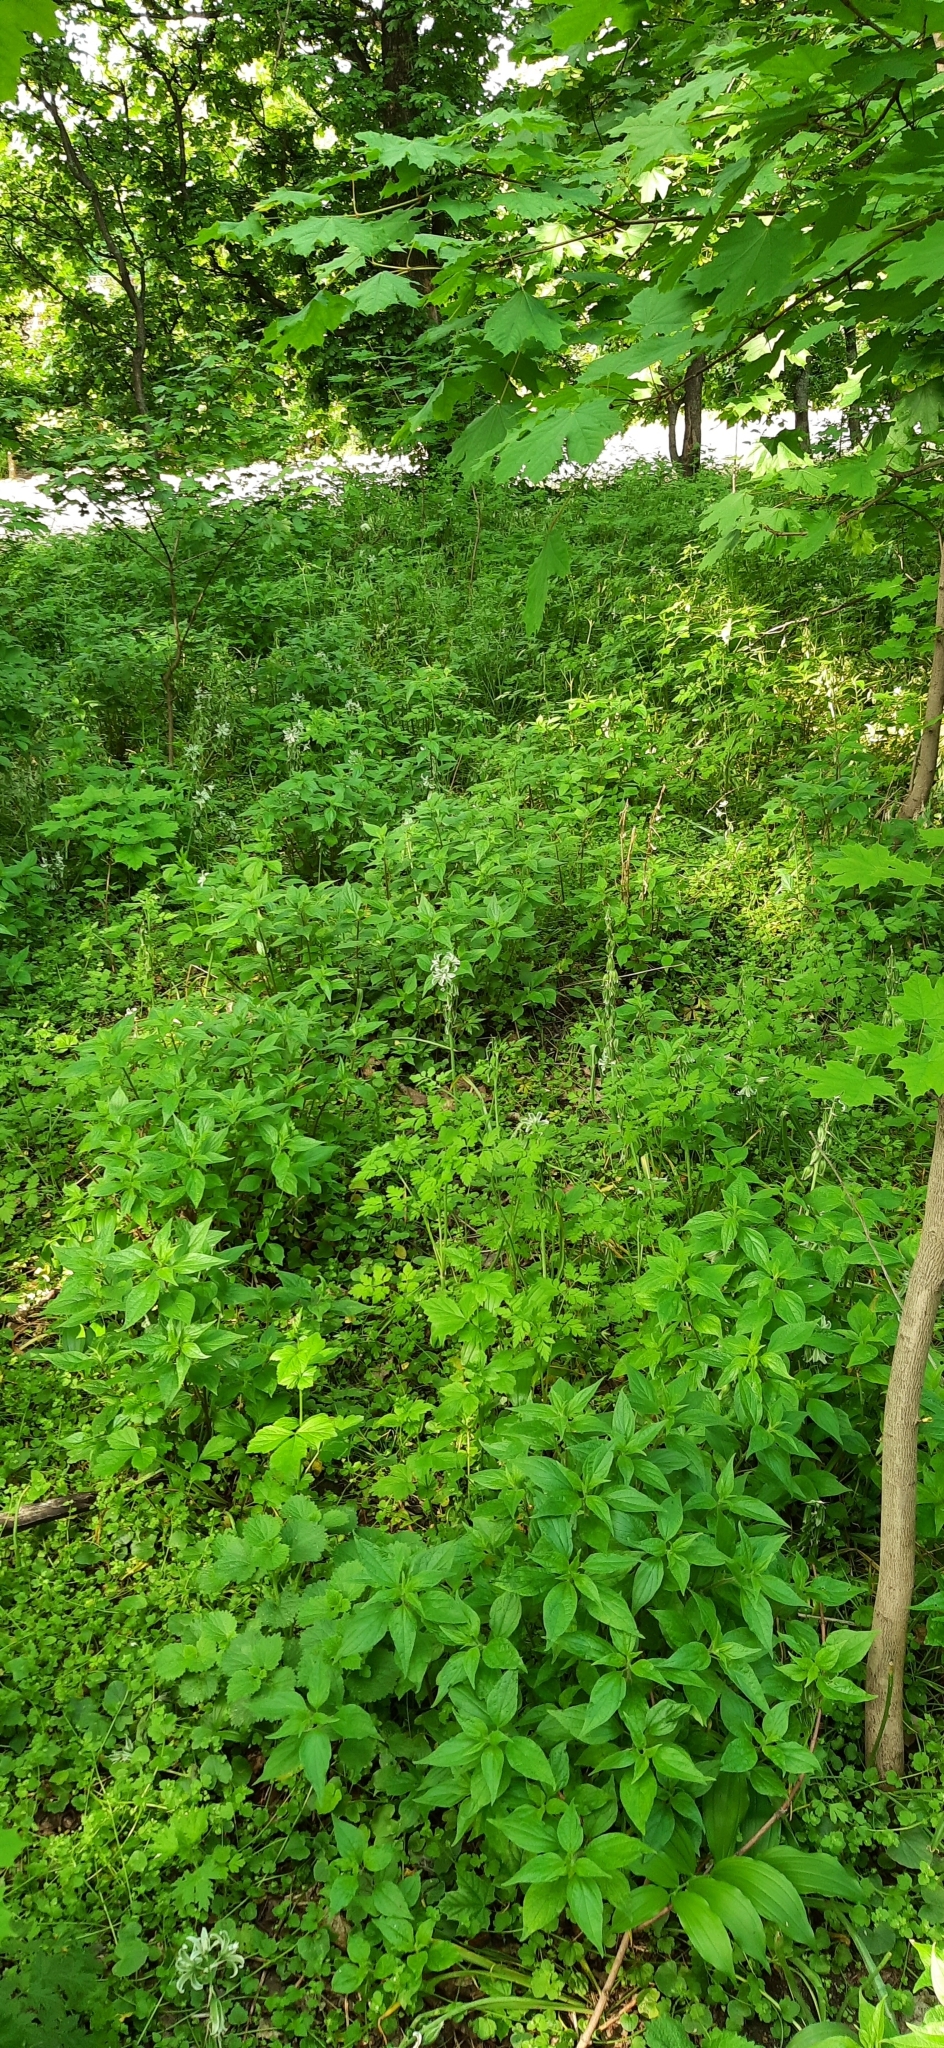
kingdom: Plantae
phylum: Tracheophyta
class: Liliopsida
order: Asparagales
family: Asparagaceae
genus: Ornithogalum
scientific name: Ornithogalum boucheanum
